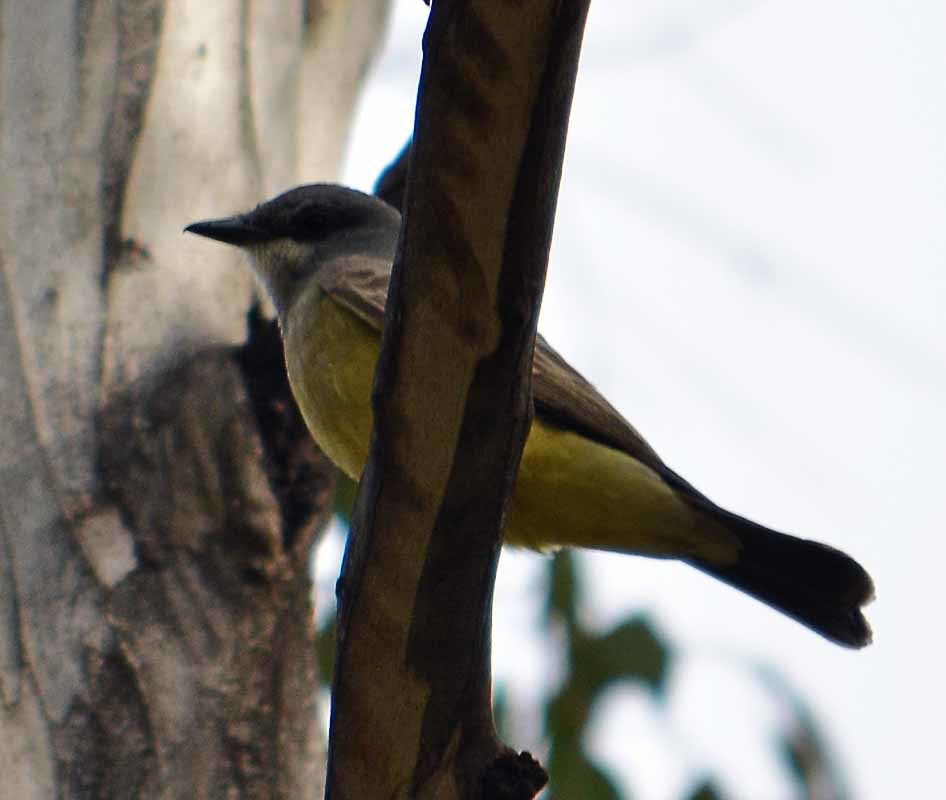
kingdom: Animalia
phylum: Chordata
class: Aves
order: Passeriformes
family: Tyrannidae
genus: Tyrannus
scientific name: Tyrannus vociferans
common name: Cassin's kingbird
